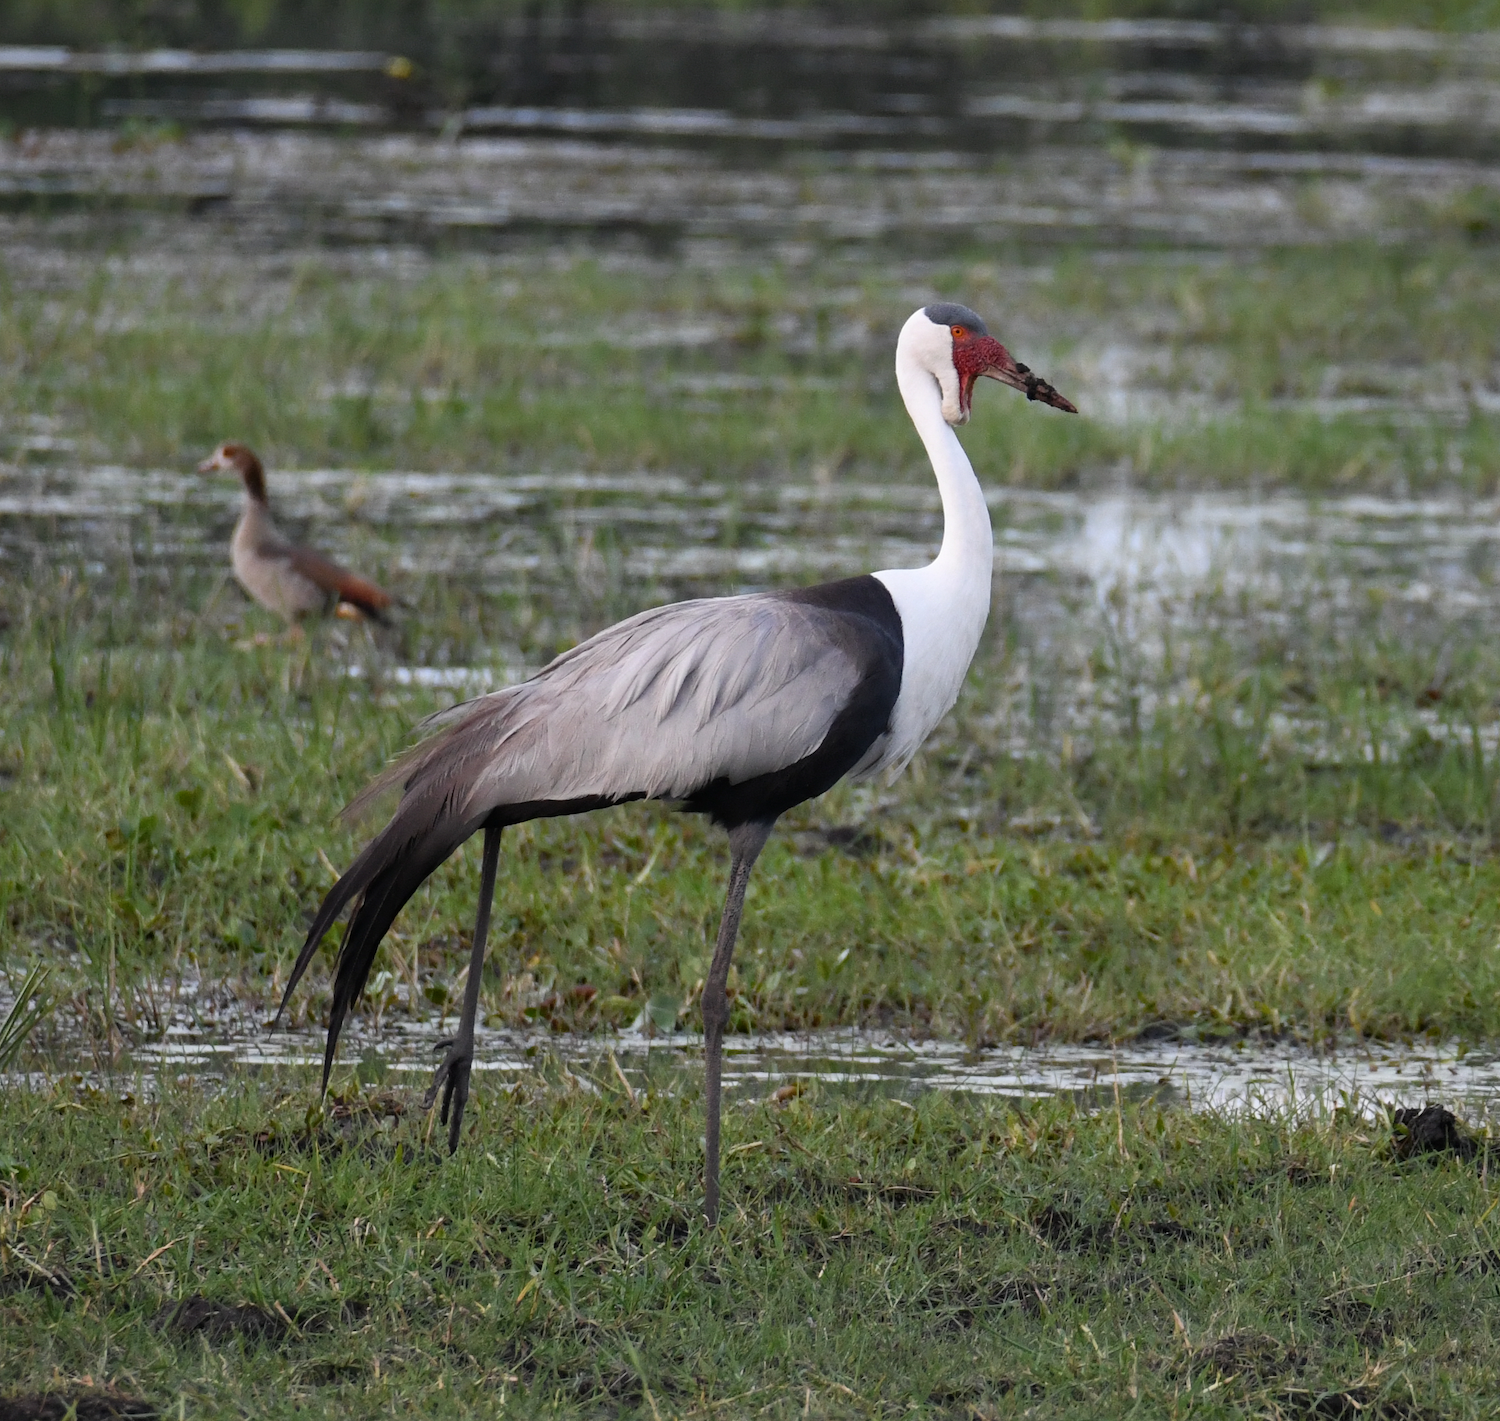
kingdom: Animalia
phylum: Chordata
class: Aves
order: Gruiformes
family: Gruidae
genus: Bugeranus
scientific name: Bugeranus carunculatus
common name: Wattled crane
